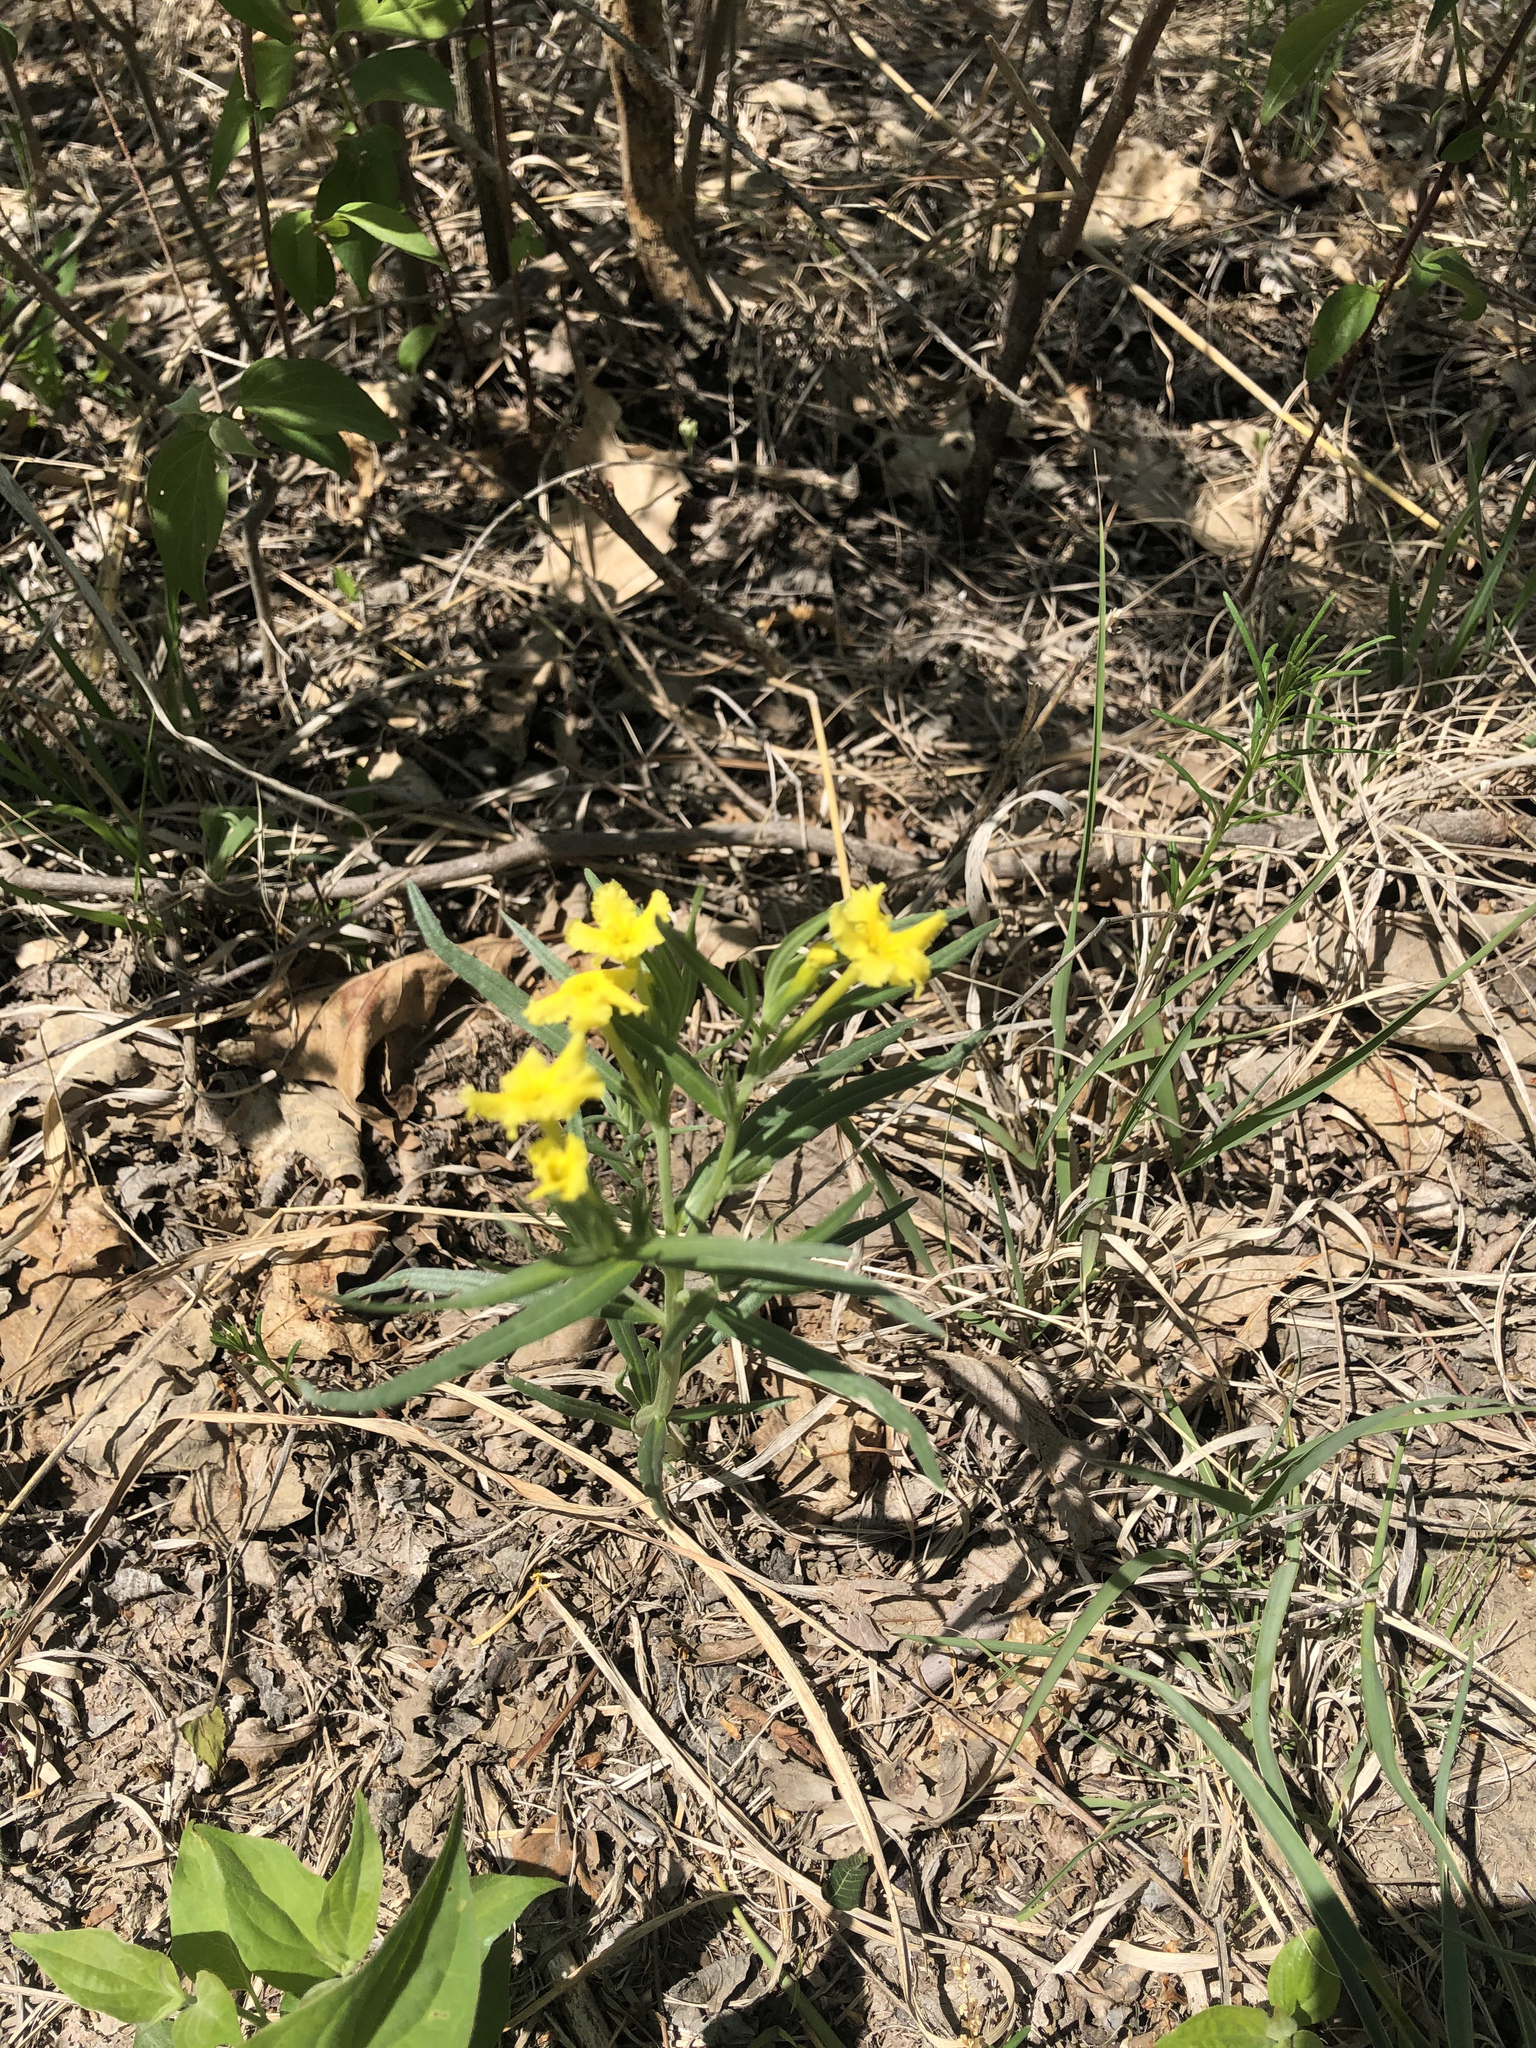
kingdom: Plantae
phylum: Tracheophyta
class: Magnoliopsida
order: Boraginales
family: Boraginaceae
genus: Lithospermum
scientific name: Lithospermum incisum
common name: Fringed gromwell
